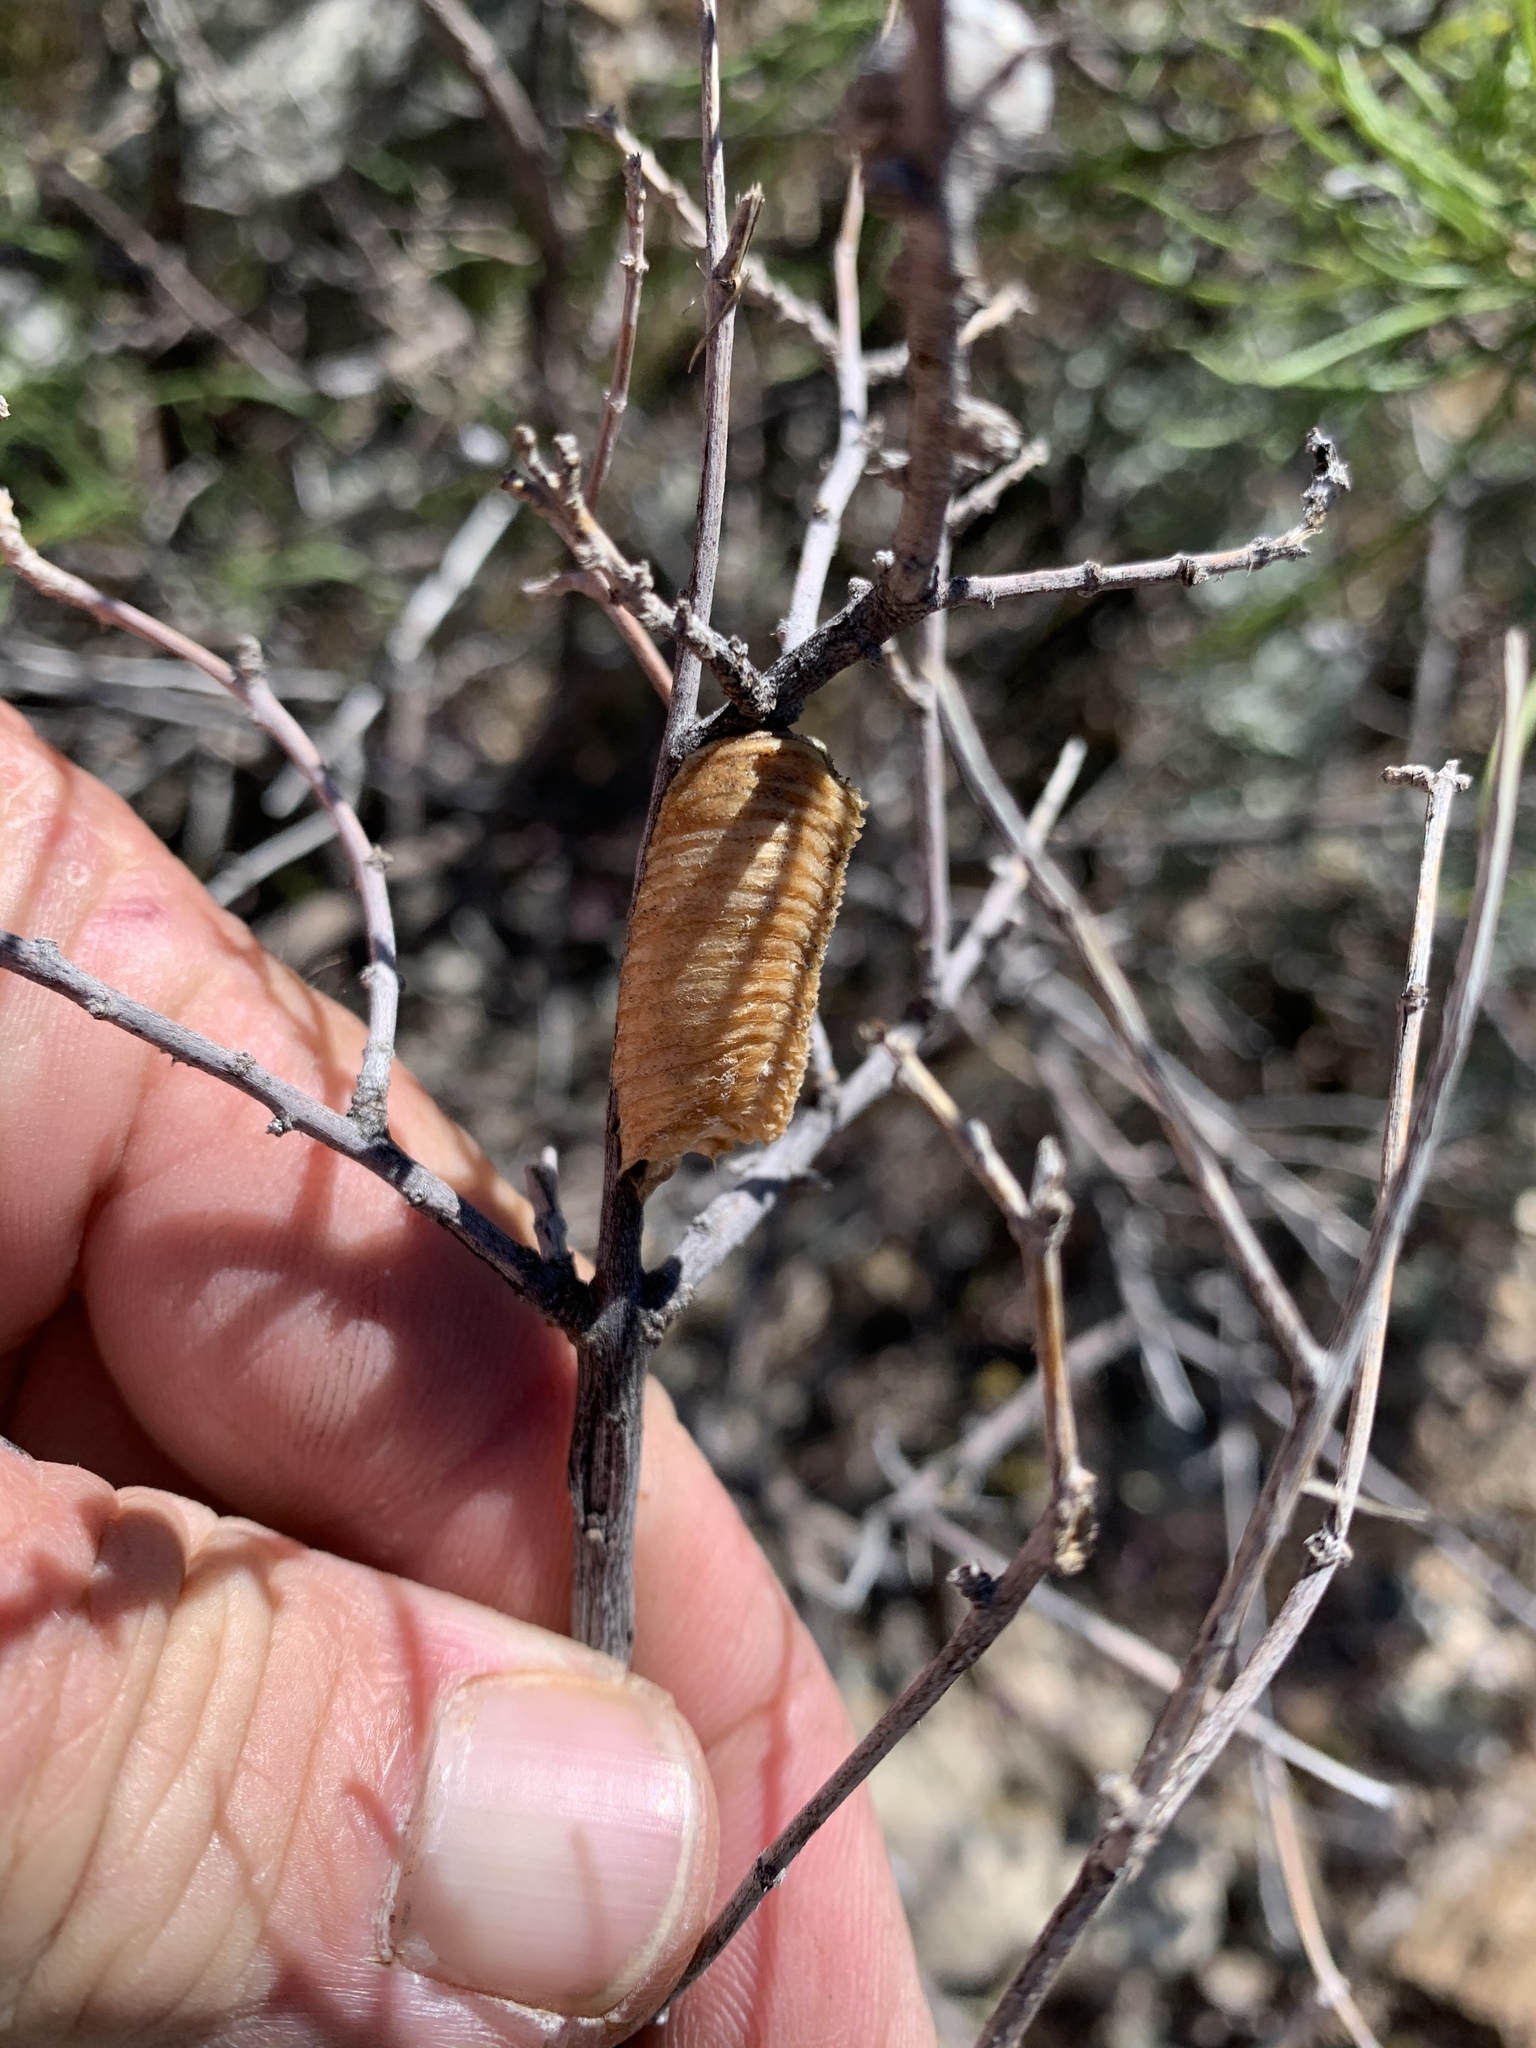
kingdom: Animalia
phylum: Arthropoda
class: Insecta
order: Mantodea
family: Mantidae
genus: Stagmomantis
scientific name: Stagmomantis californica
